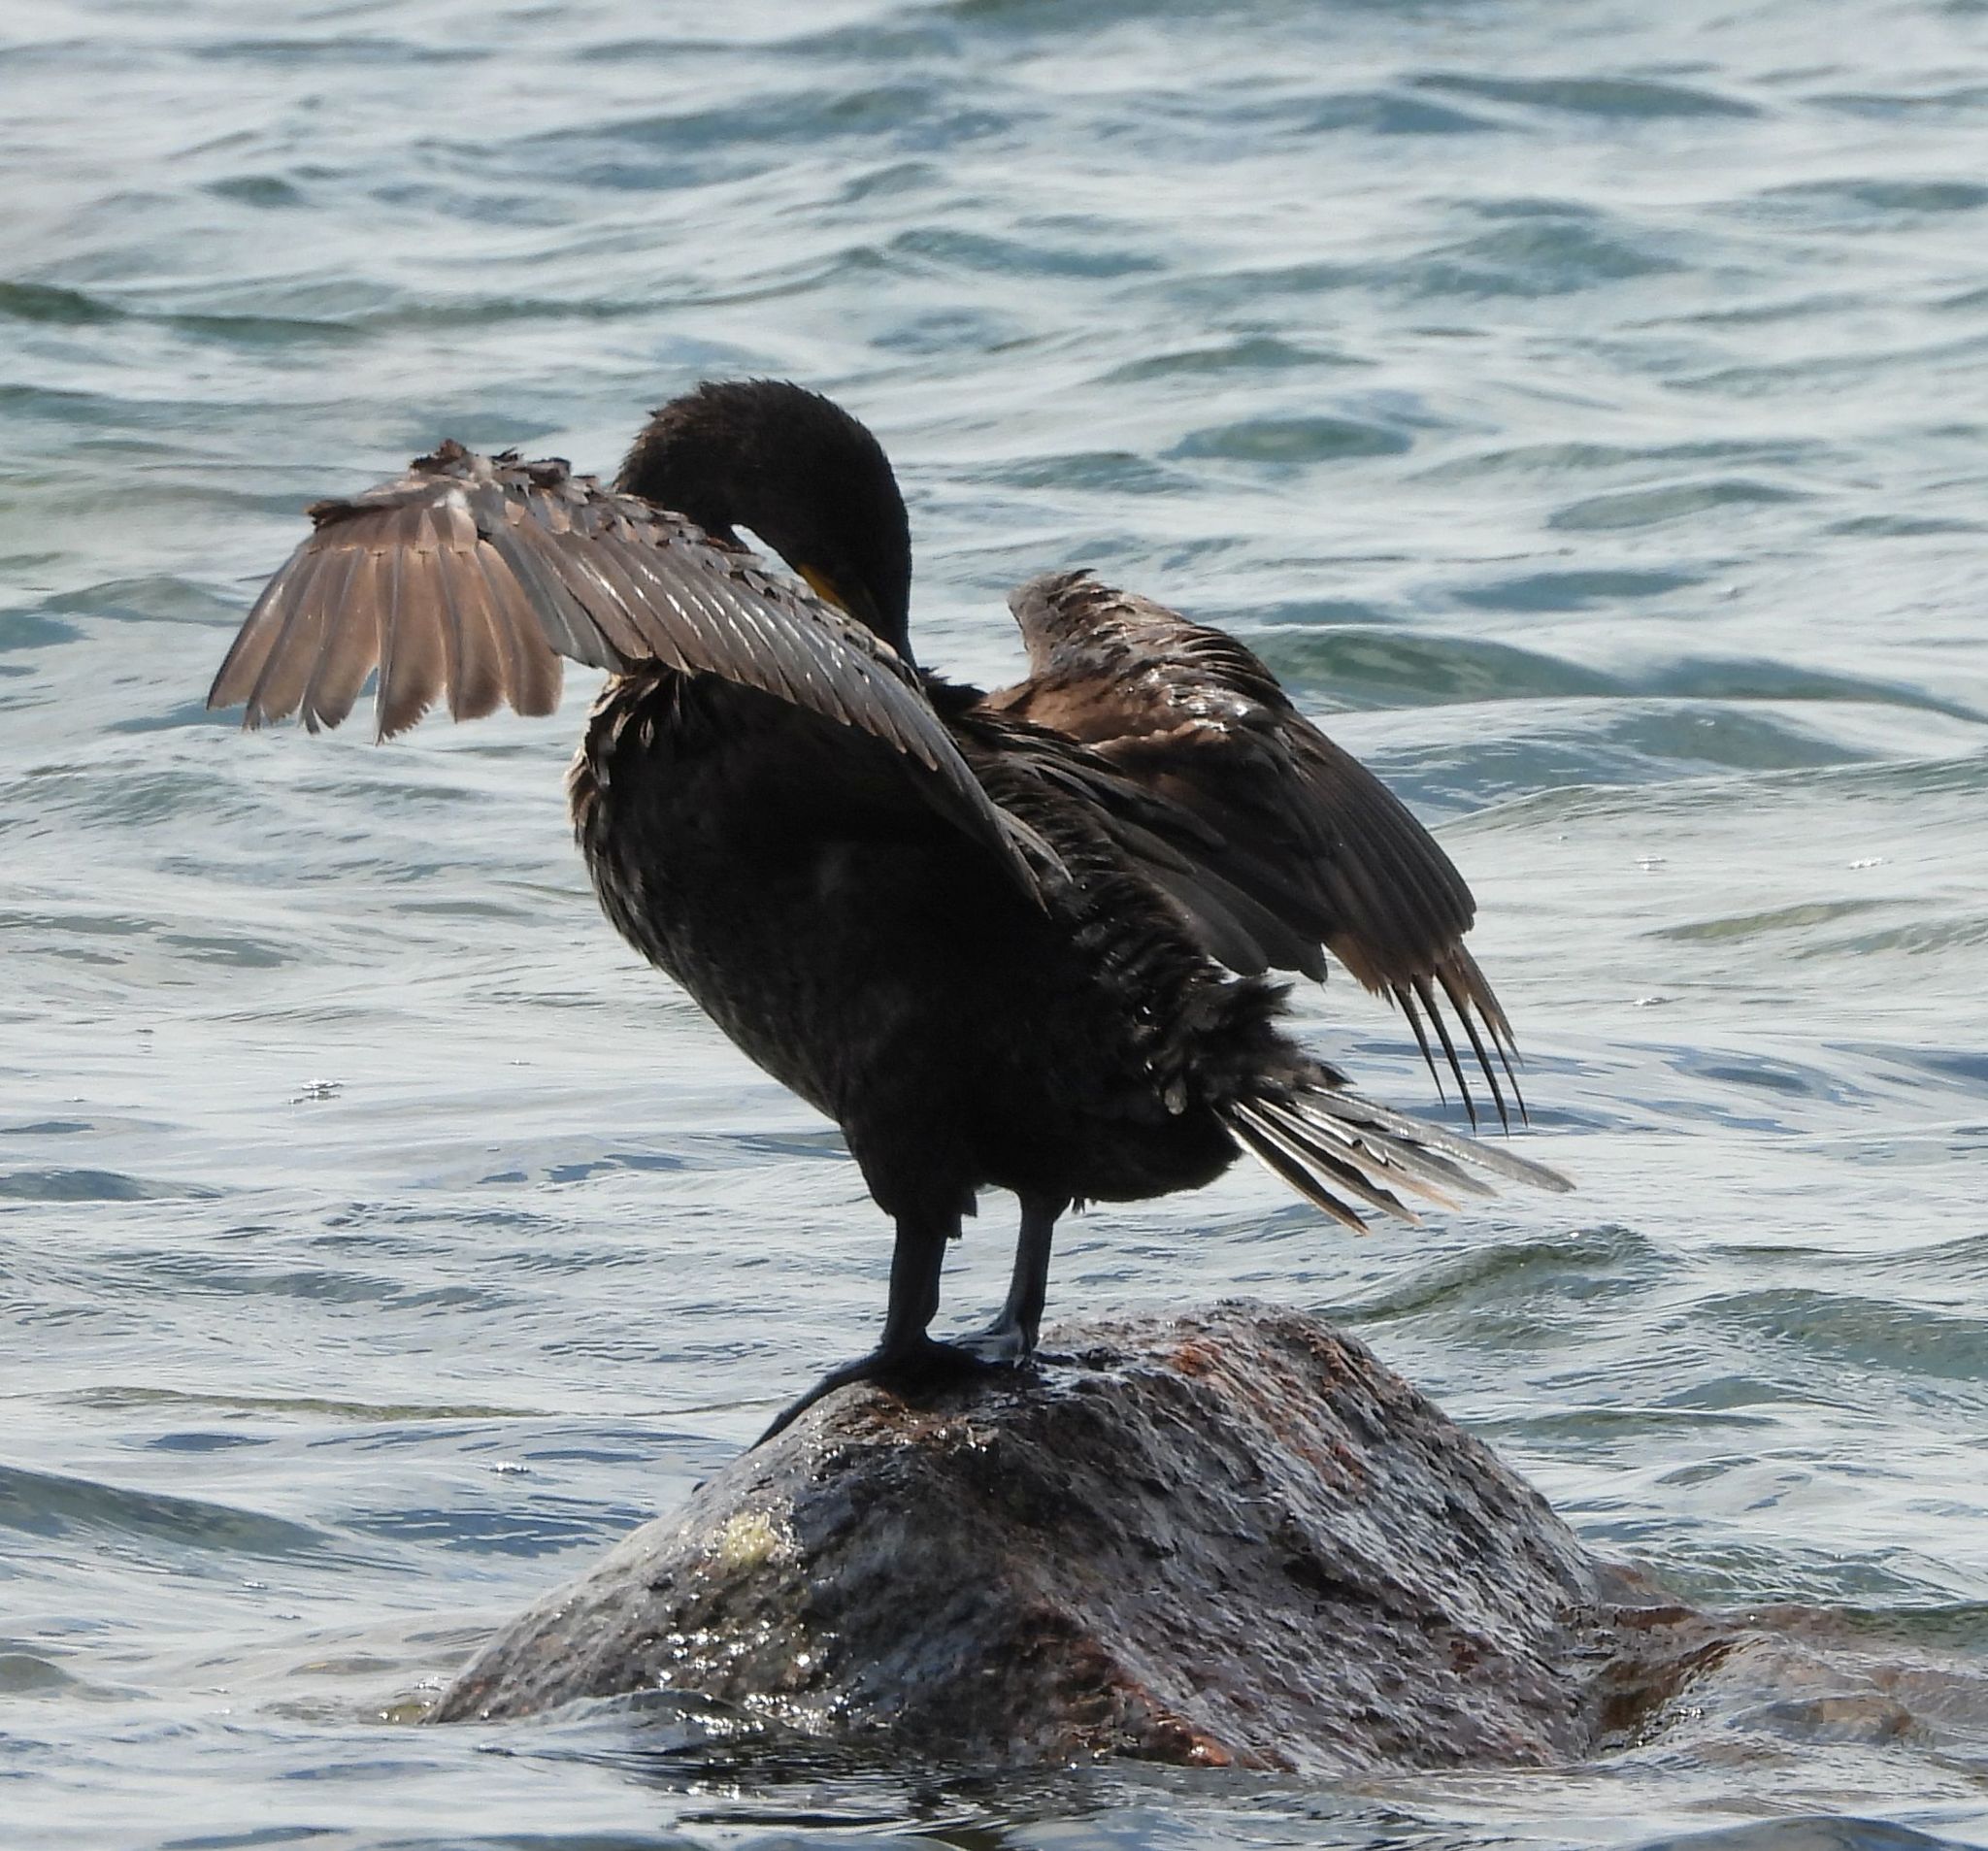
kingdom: Animalia
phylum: Chordata
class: Aves
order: Suliformes
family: Phalacrocoracidae
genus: Phalacrocorax
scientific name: Phalacrocorax auritus
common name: Double-crested cormorant
